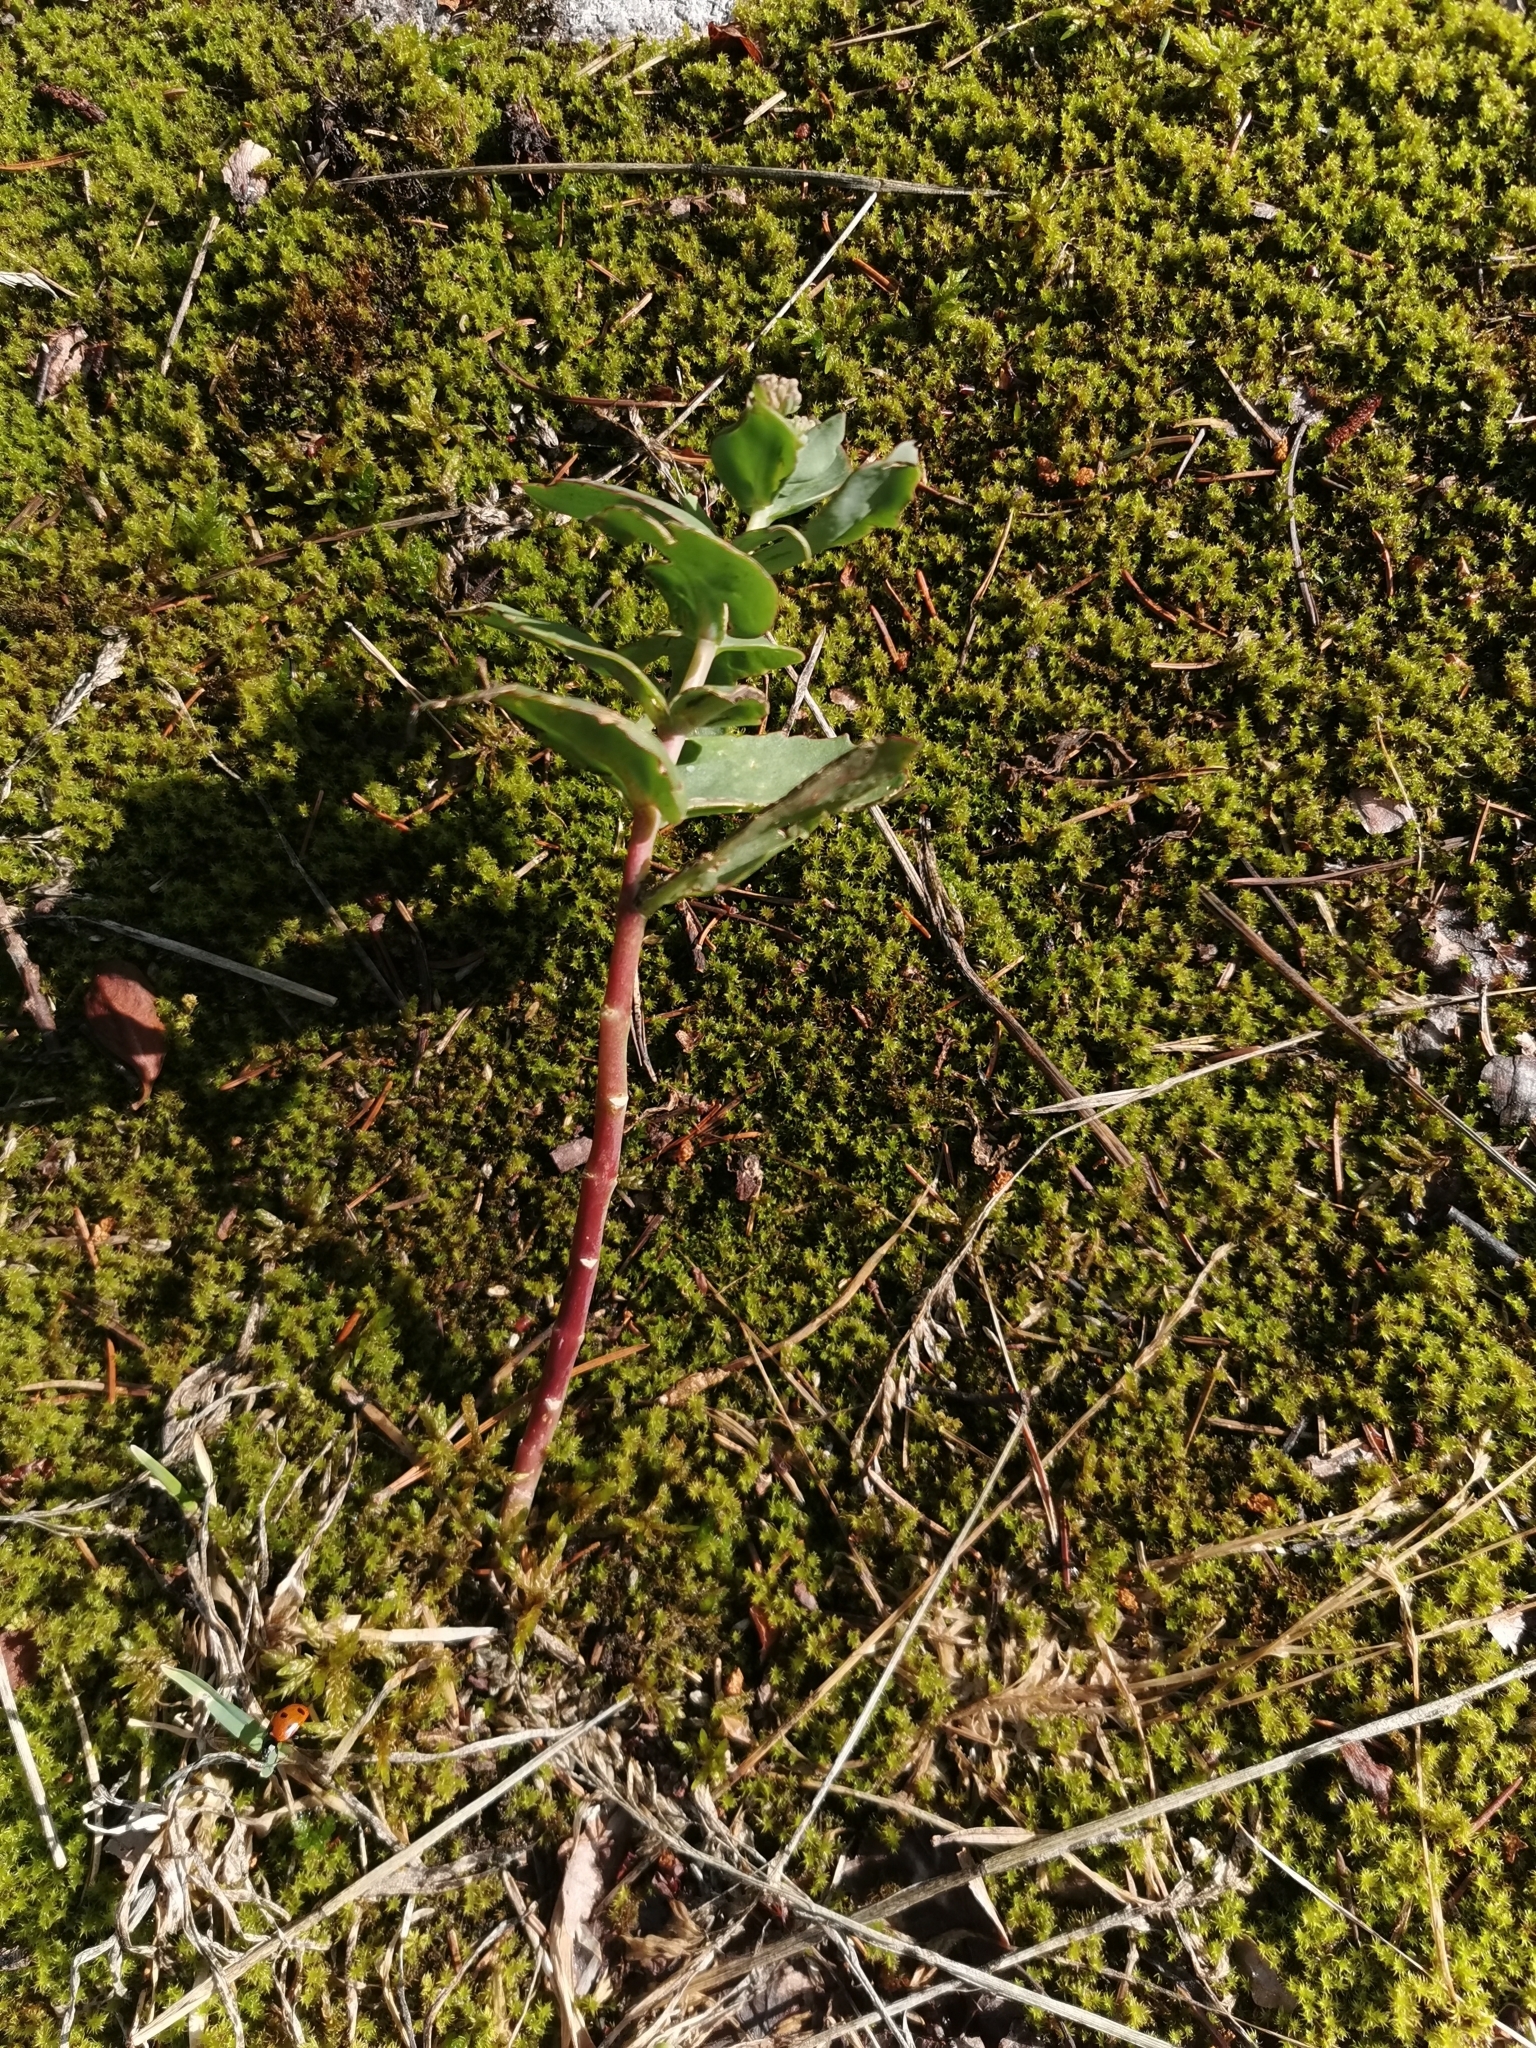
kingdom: Plantae
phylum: Tracheophyta
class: Magnoliopsida
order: Saxifragales
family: Crassulaceae
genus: Hylotelephium
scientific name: Hylotelephium maximum
